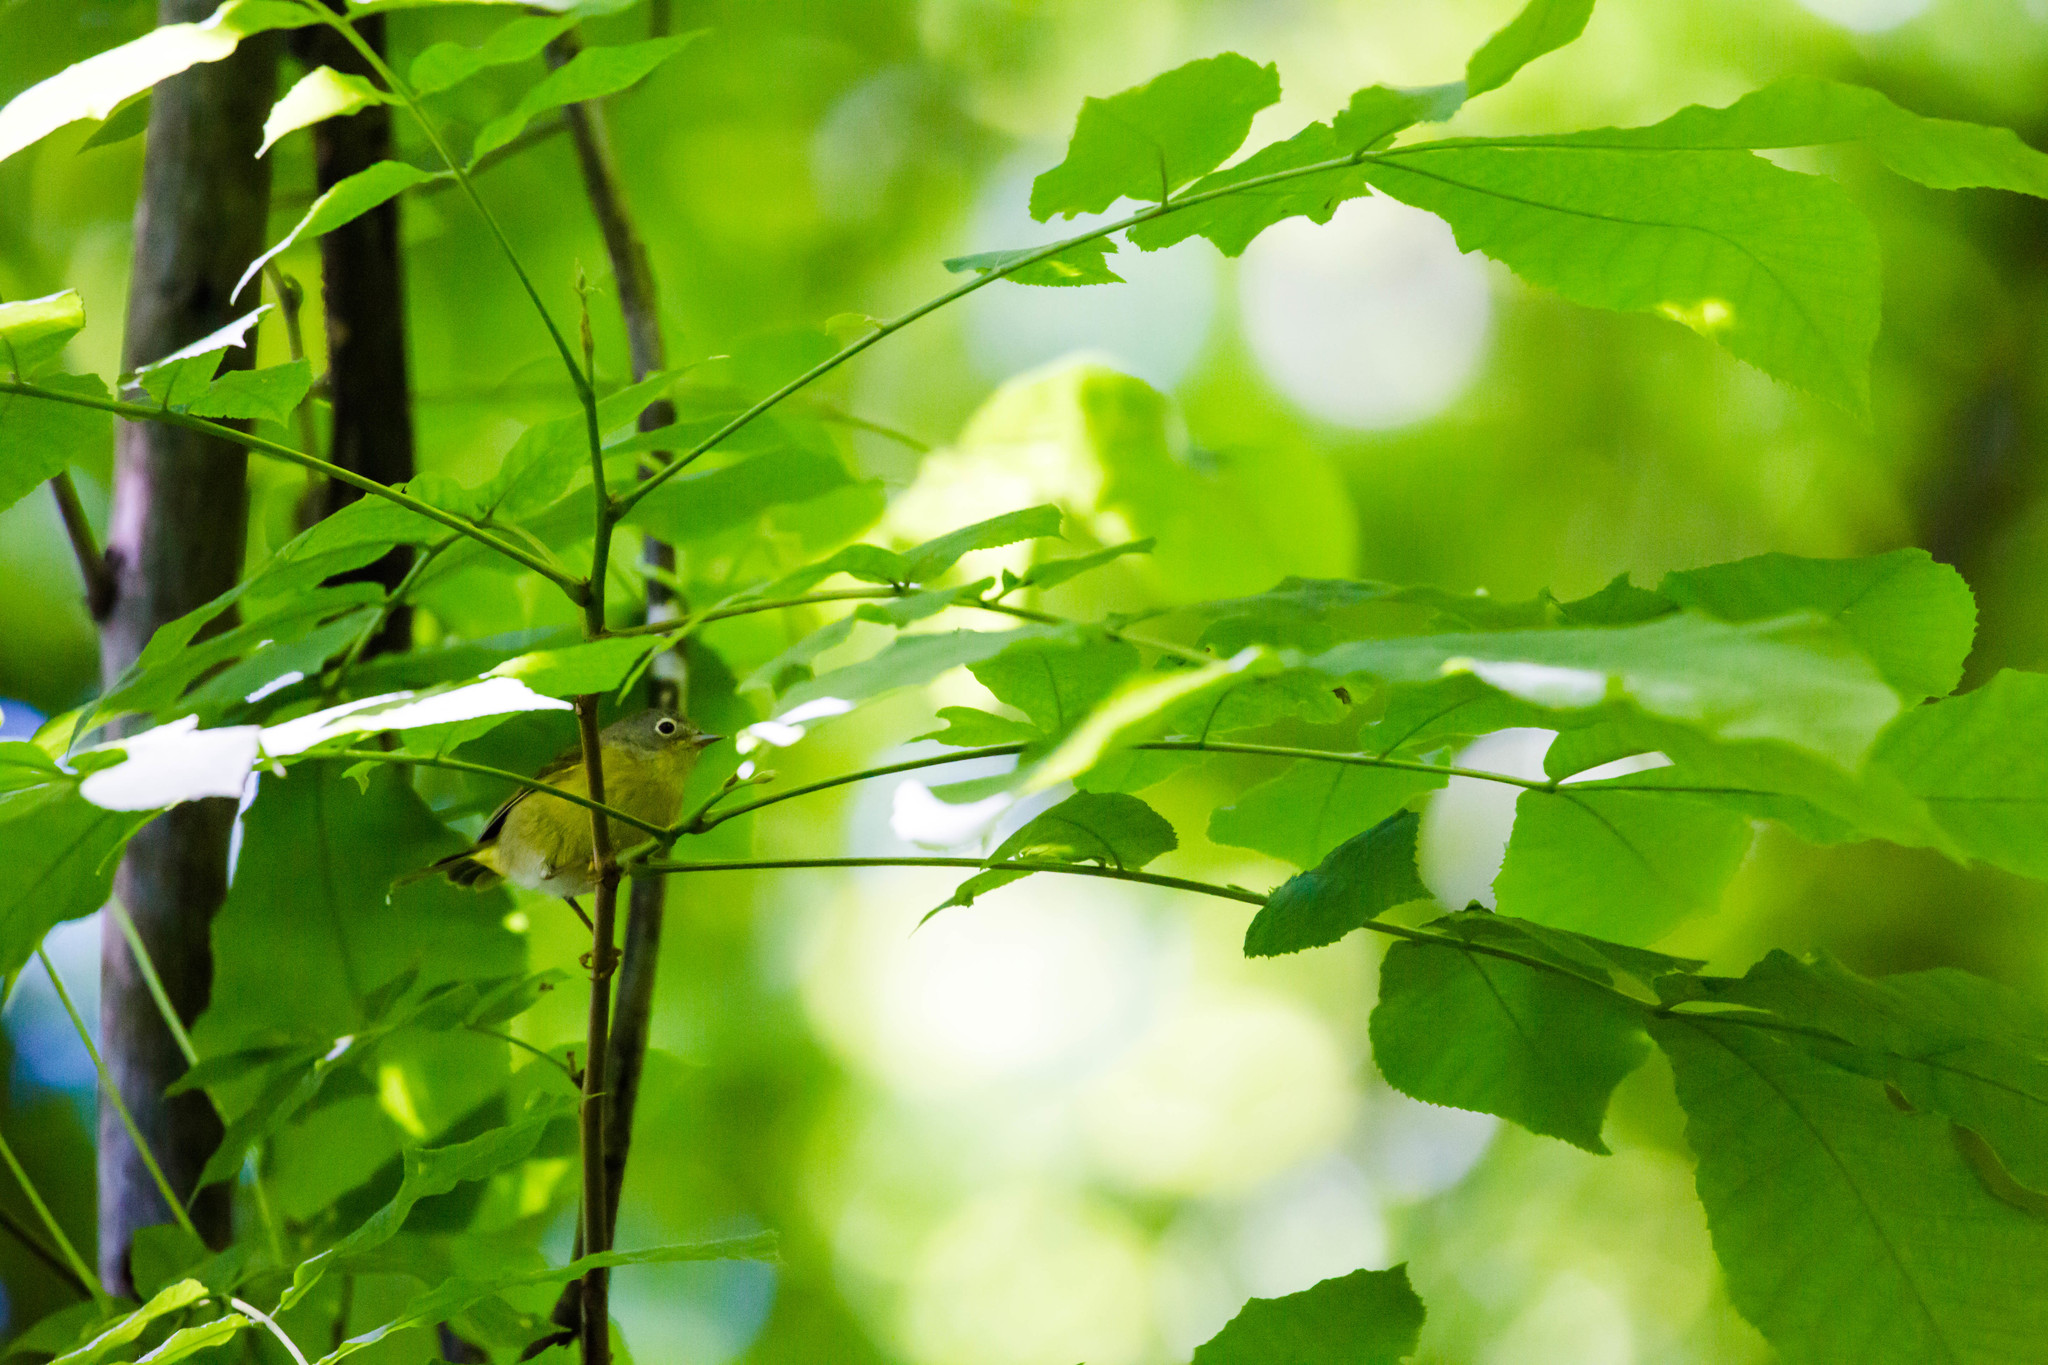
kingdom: Animalia
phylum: Chordata
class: Aves
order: Passeriformes
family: Parulidae
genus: Leiothlypis
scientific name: Leiothlypis ruficapilla
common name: Nashville warbler
